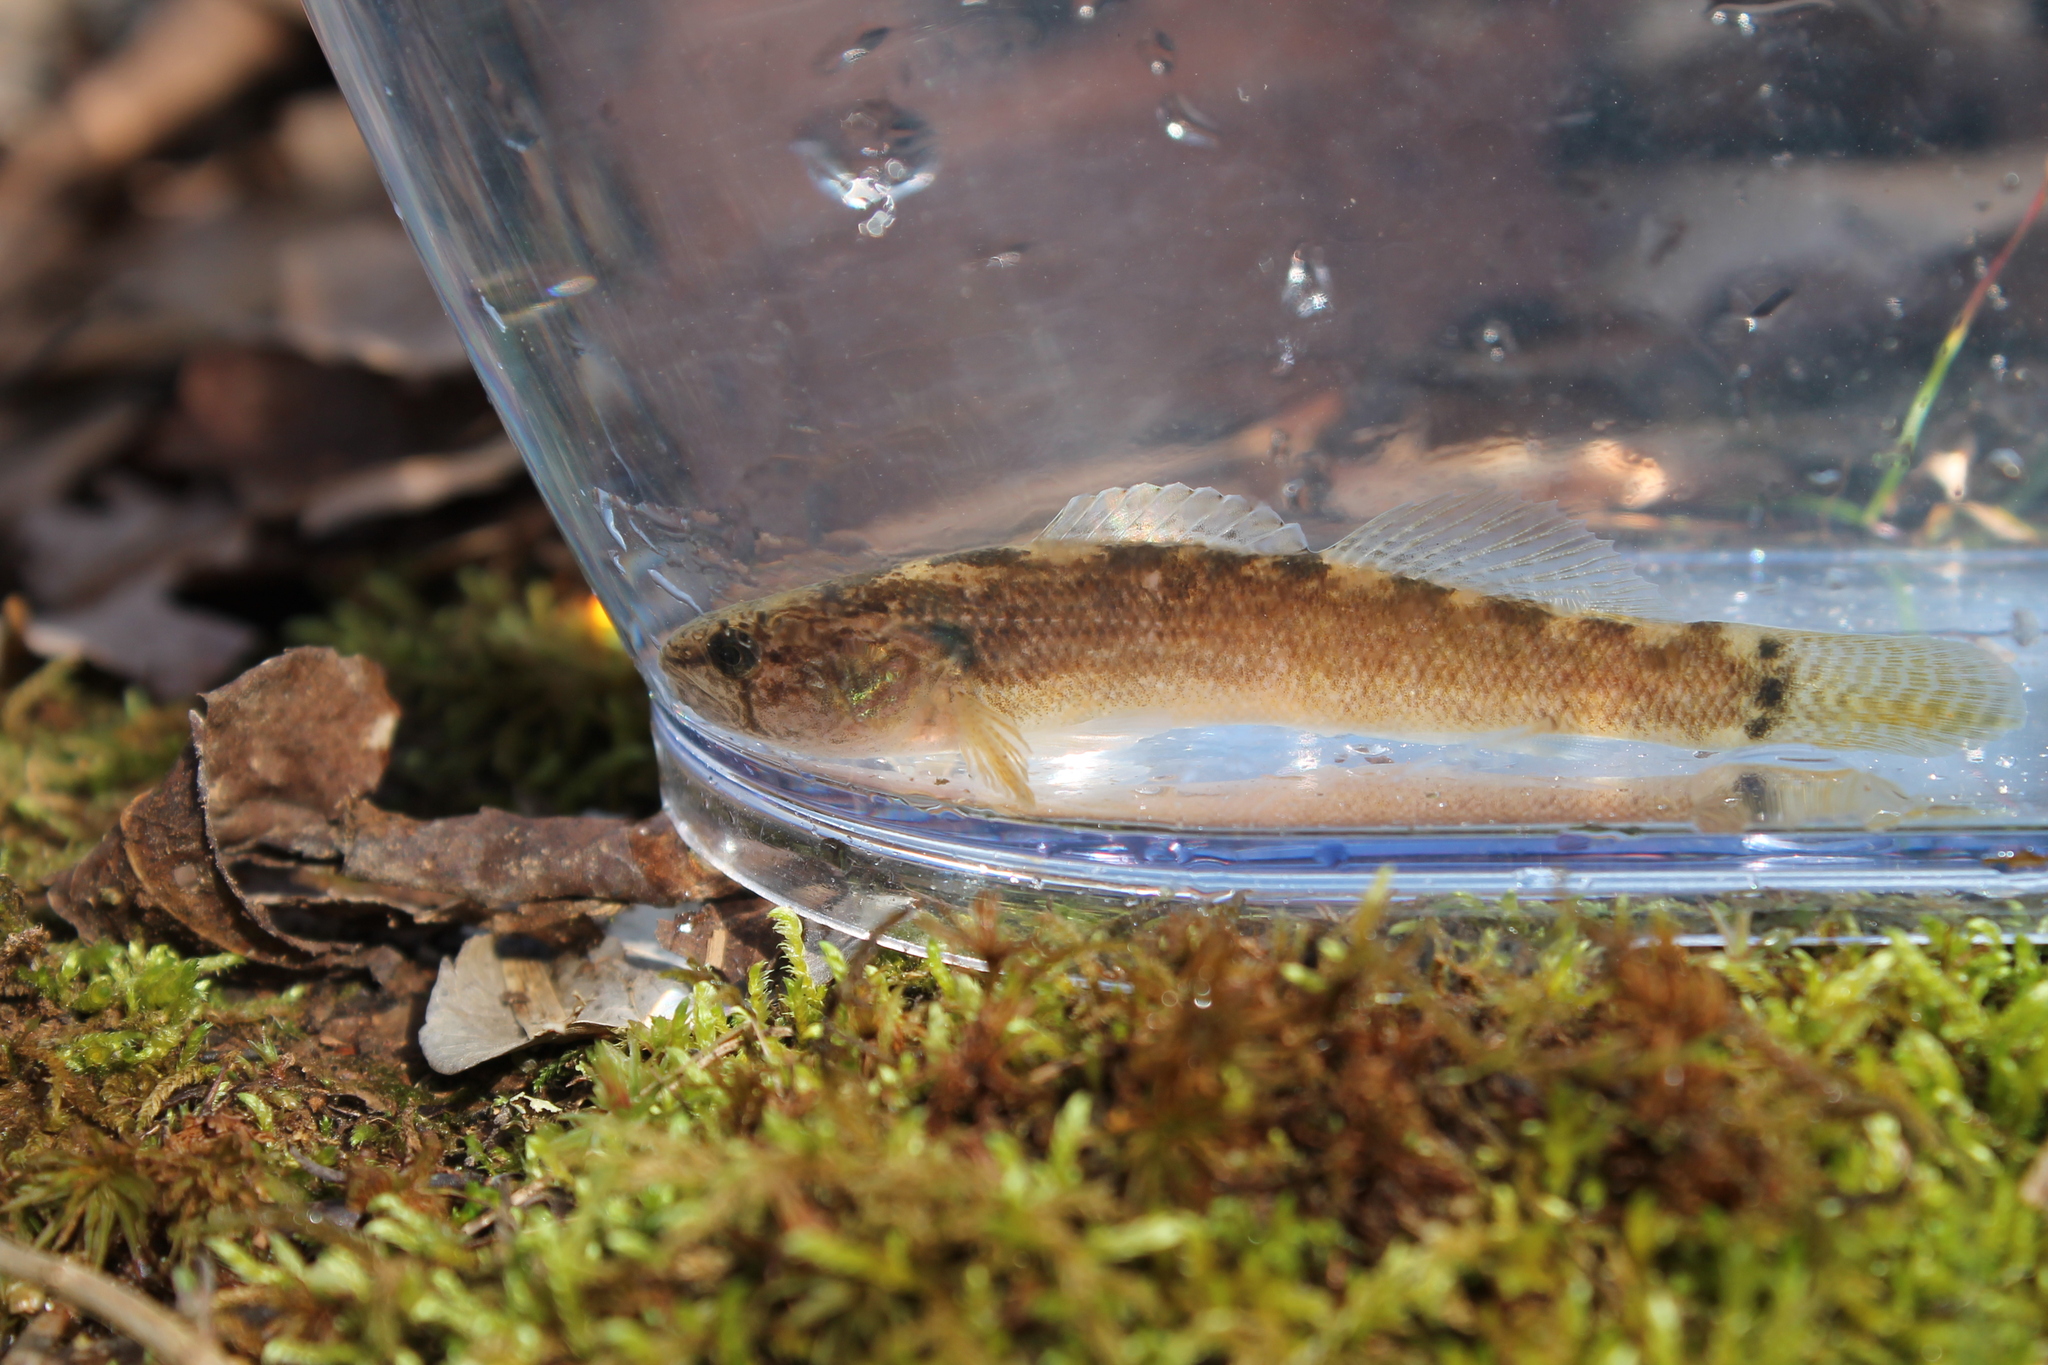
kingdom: Animalia
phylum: Chordata
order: Perciformes
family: Percidae
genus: Etheostoma
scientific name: Etheostoma crossopterum
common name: Fringed darter
